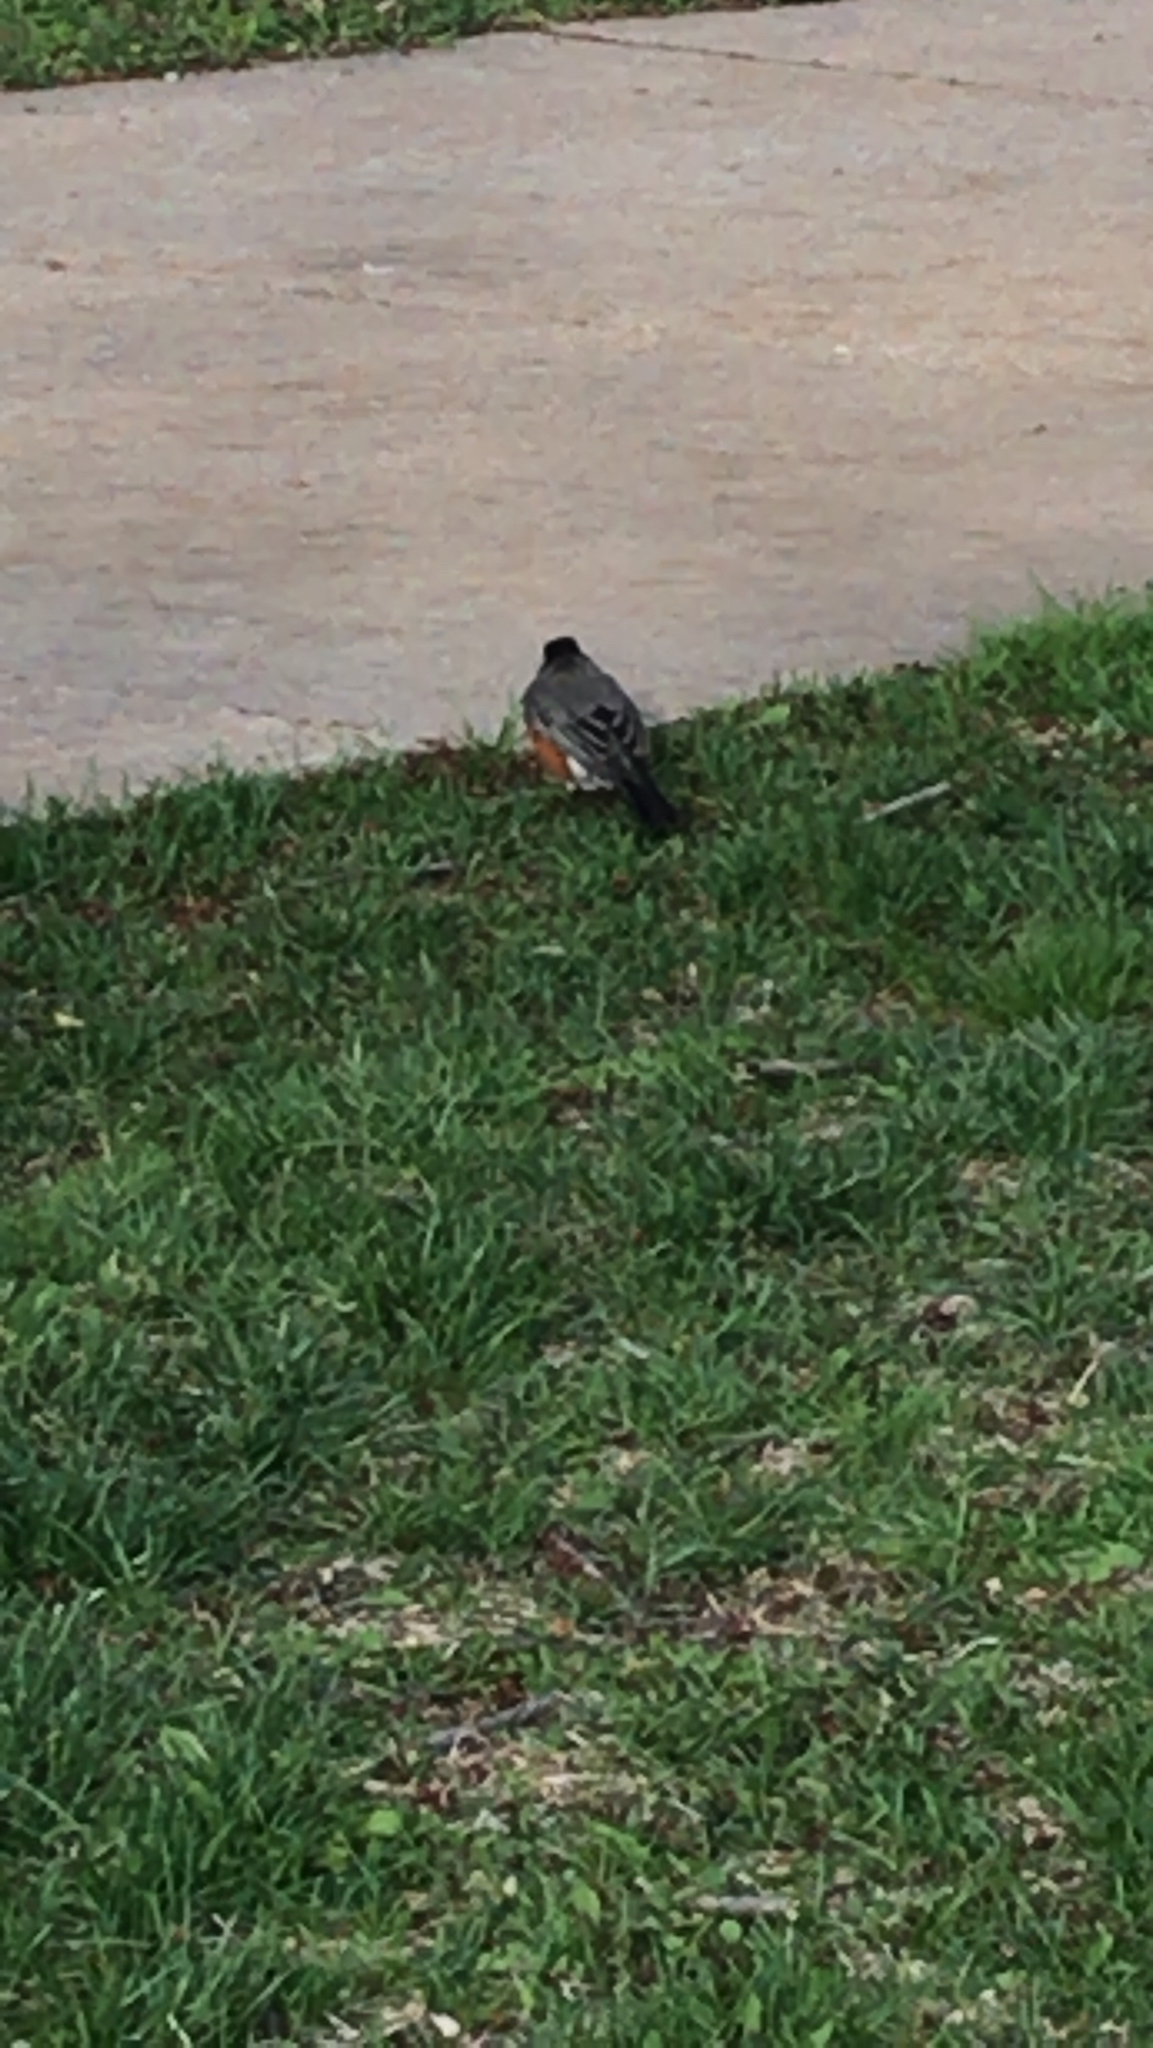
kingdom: Animalia
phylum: Chordata
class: Aves
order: Passeriformes
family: Turdidae
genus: Turdus
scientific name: Turdus migratorius
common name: American robin
